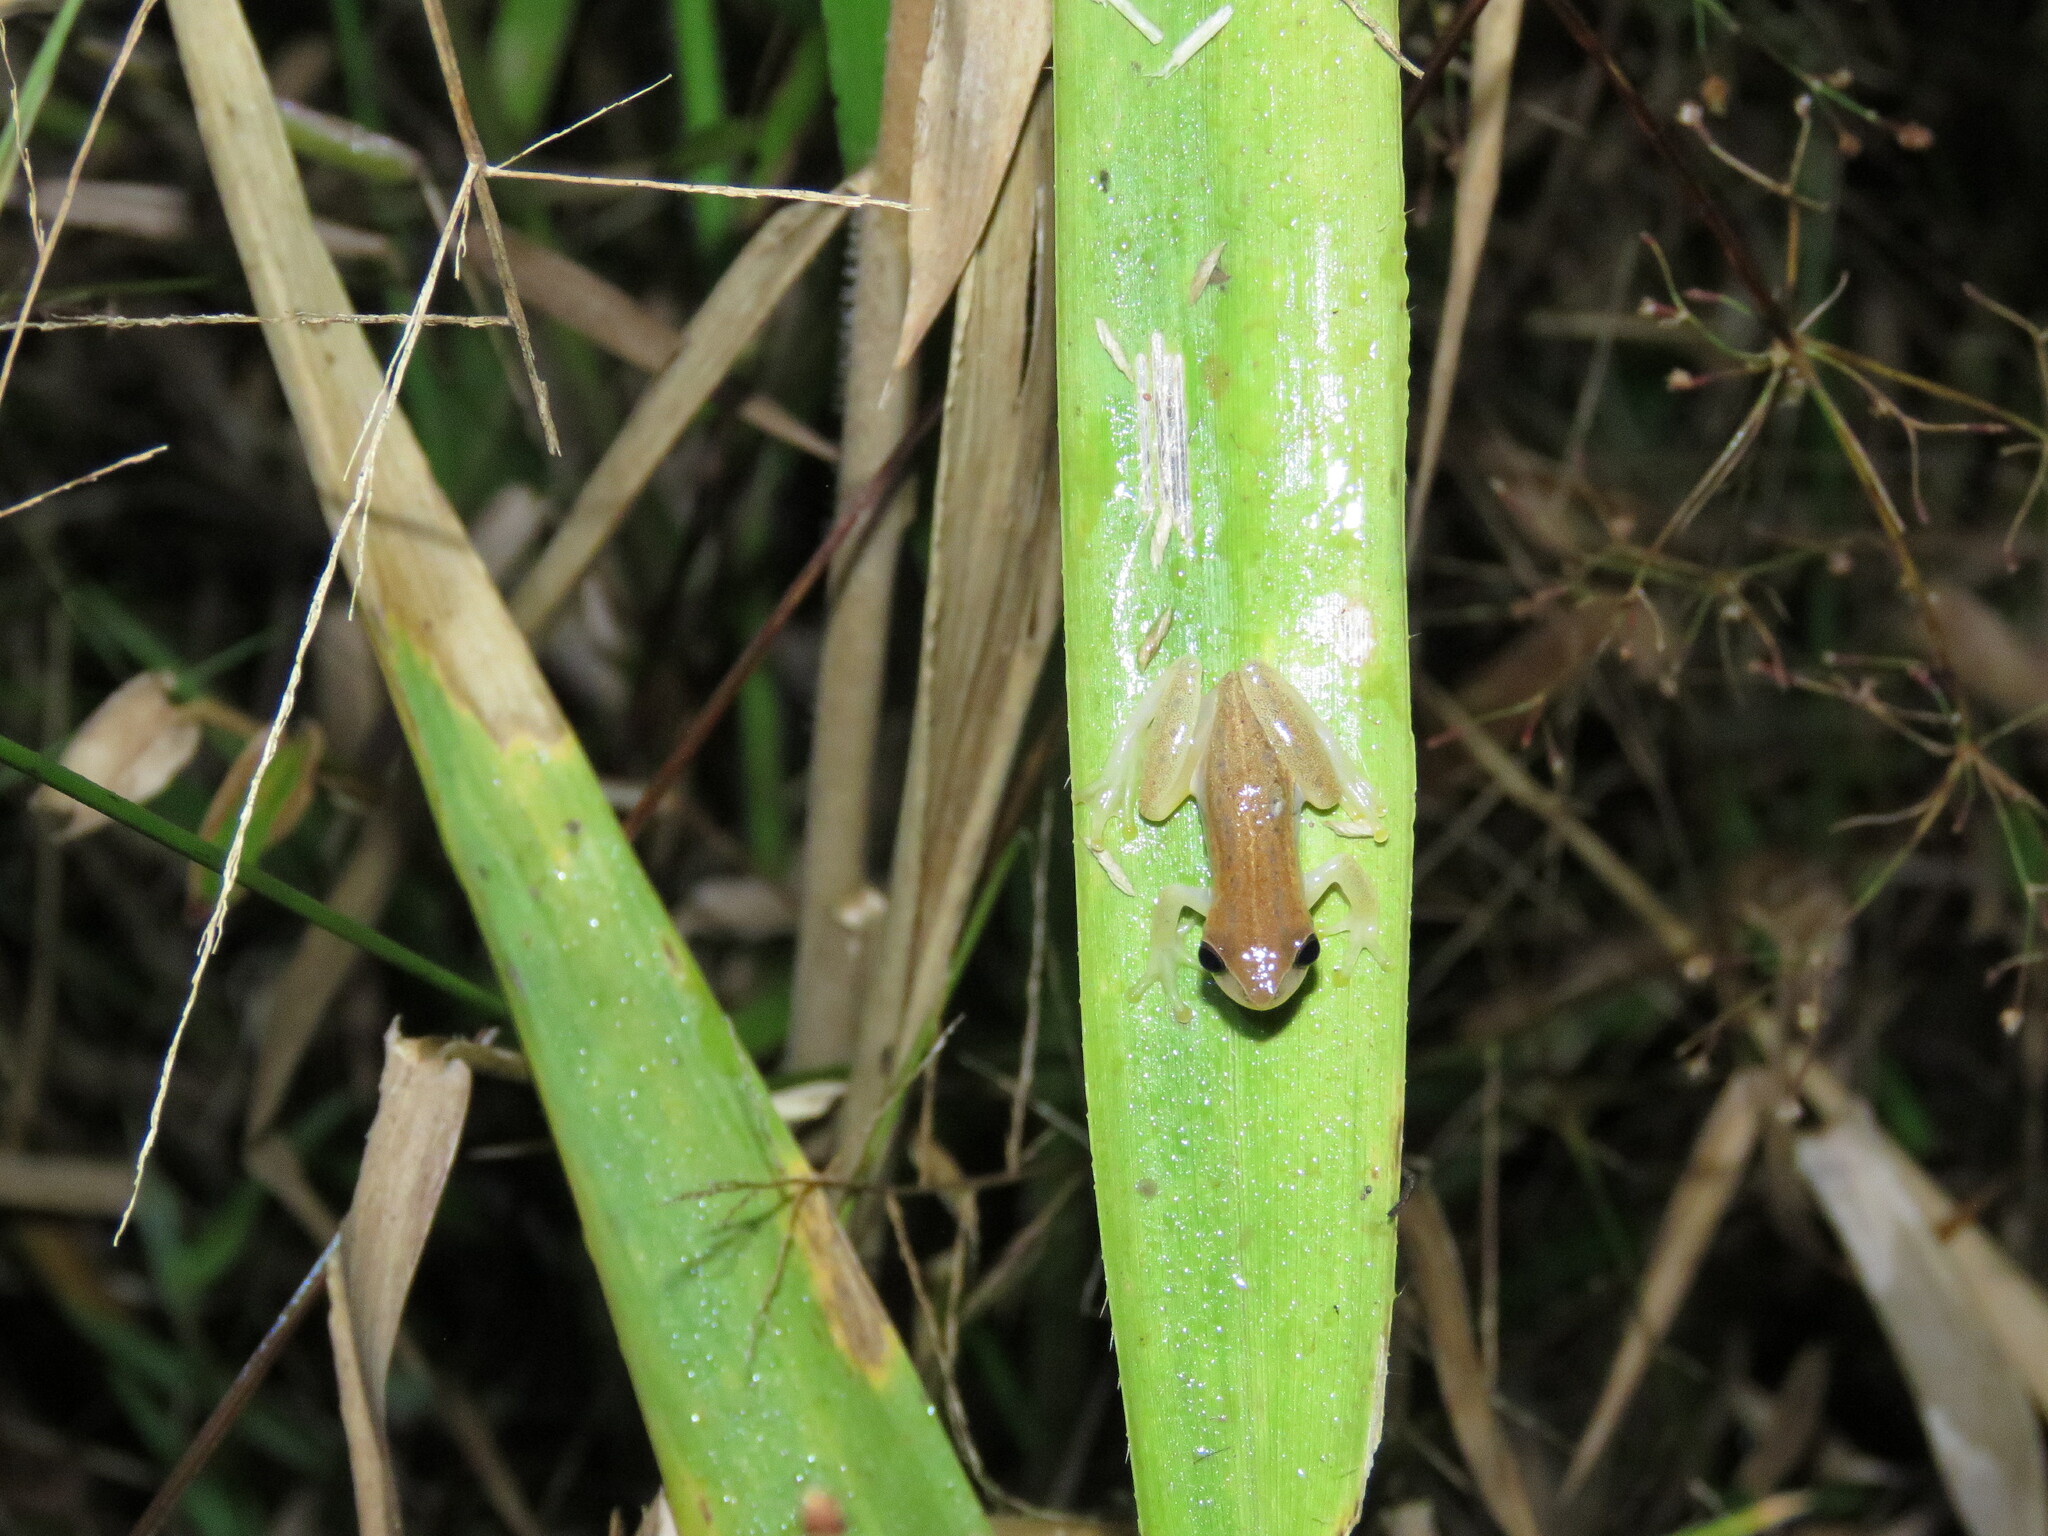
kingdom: Animalia
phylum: Chordata
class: Amphibia
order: Anura
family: Hylidae
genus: Dendropsophus
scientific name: Dendropsophus walfordi
